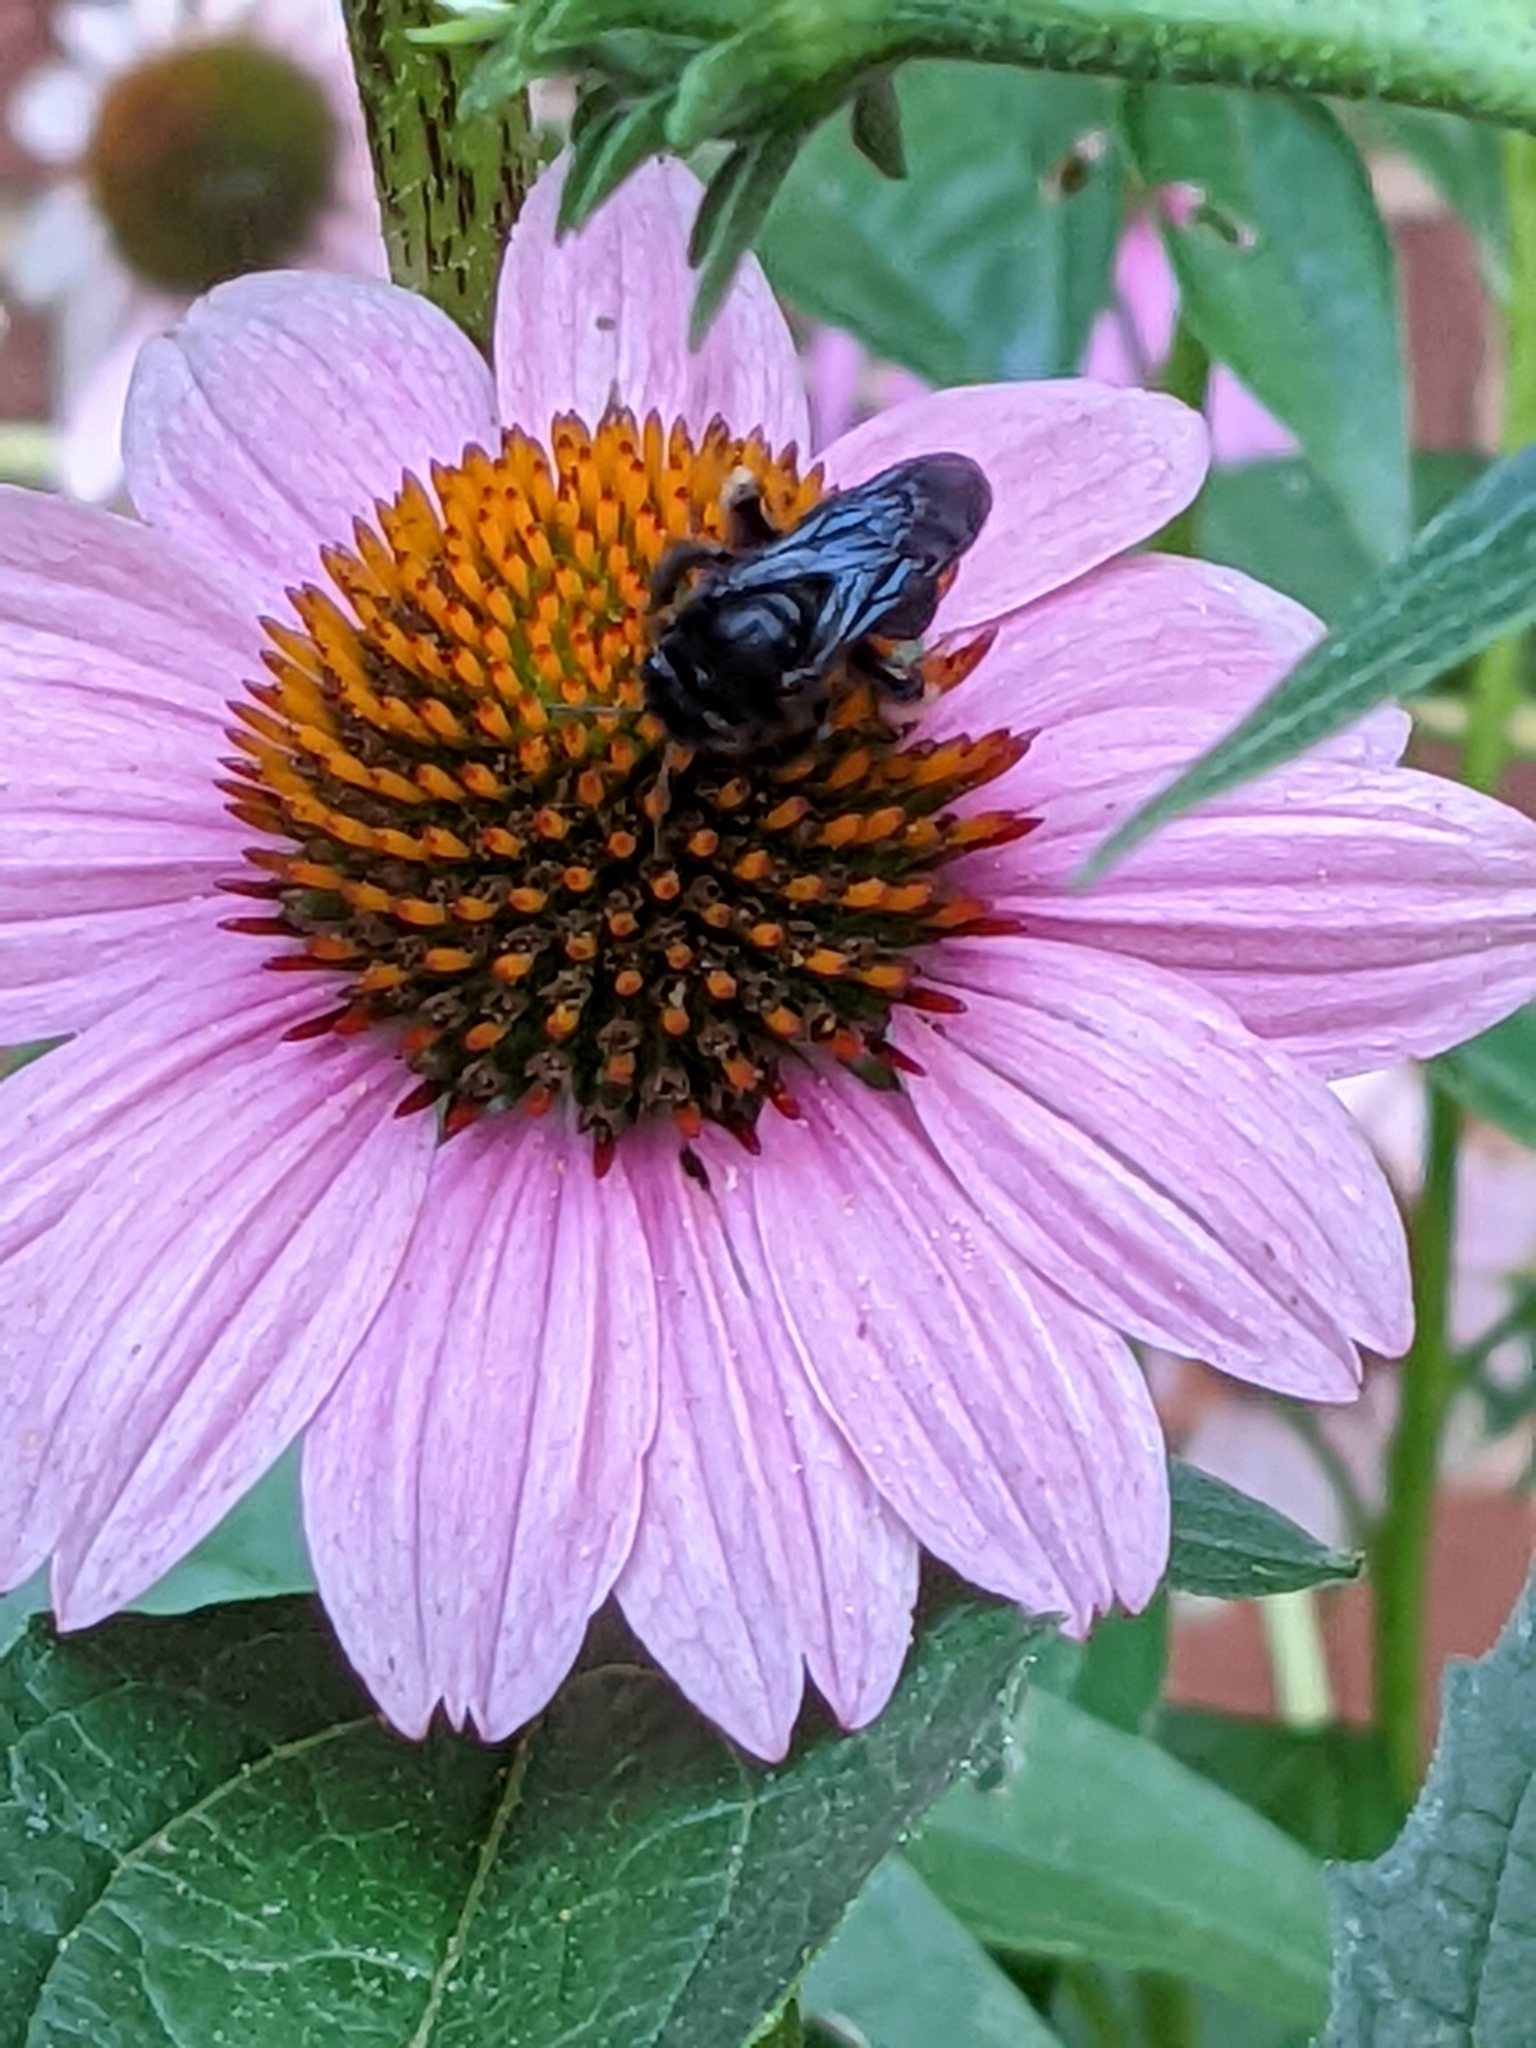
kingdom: Animalia
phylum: Arthropoda
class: Insecta
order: Hymenoptera
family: Apidae
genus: Melissodes
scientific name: Melissodes bimaculatus
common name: Two-spotted long-horned bee
